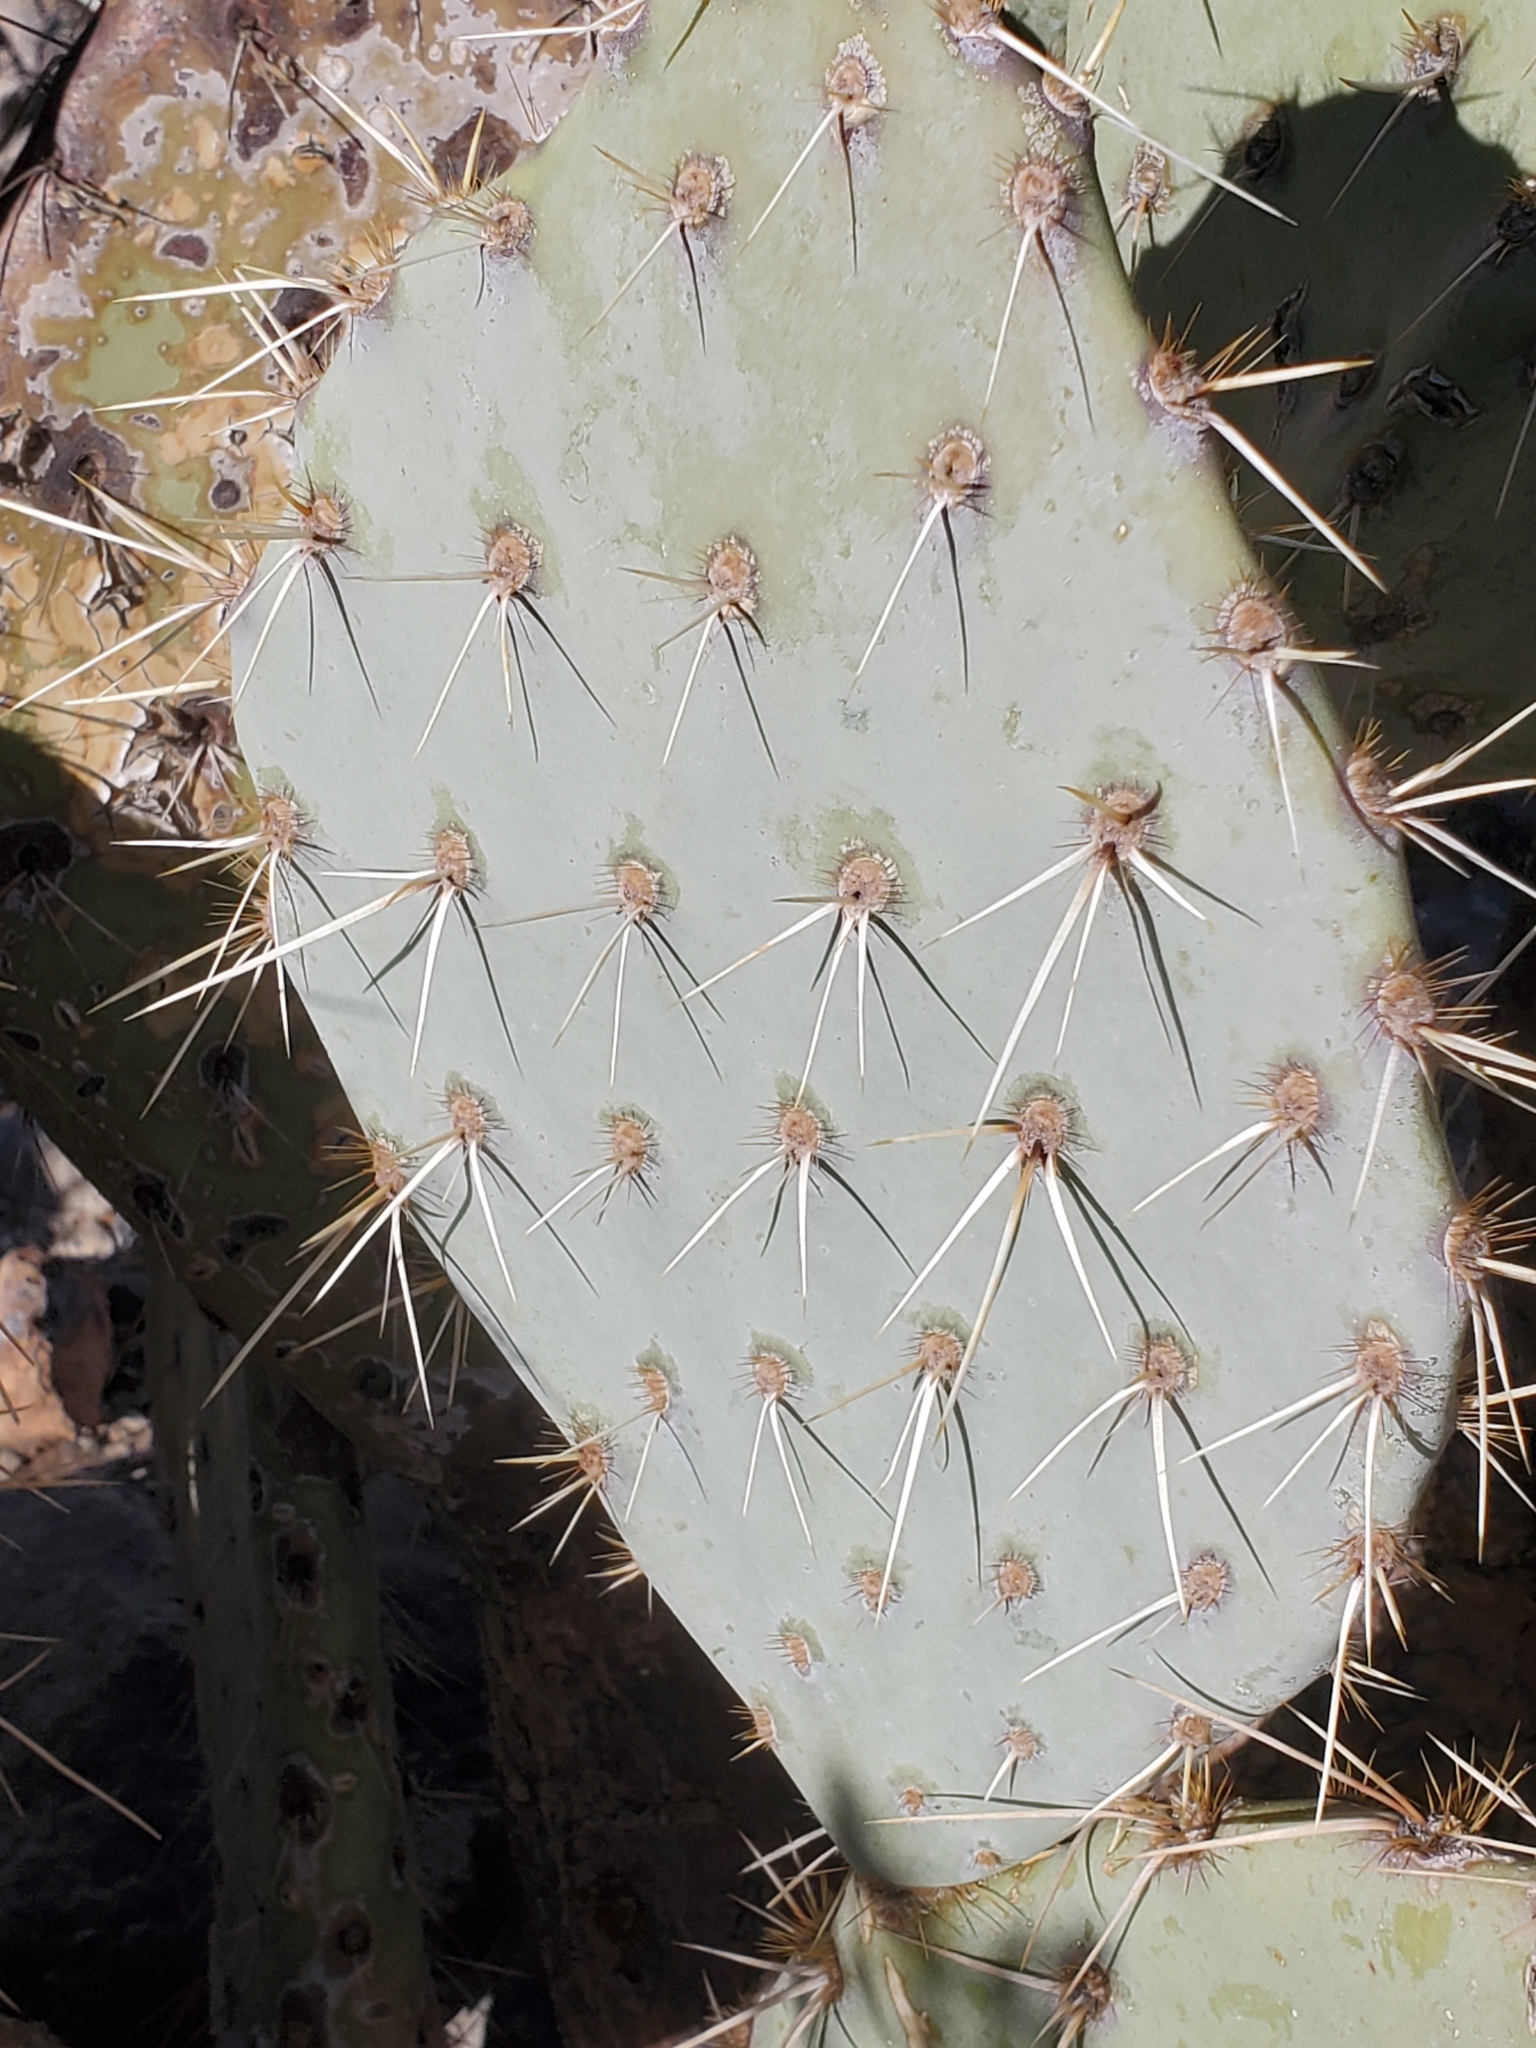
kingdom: Plantae
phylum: Tracheophyta
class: Magnoliopsida
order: Caryophyllales
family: Cactaceae
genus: Opuntia
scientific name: Opuntia engelmannii
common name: Cactus-apple
